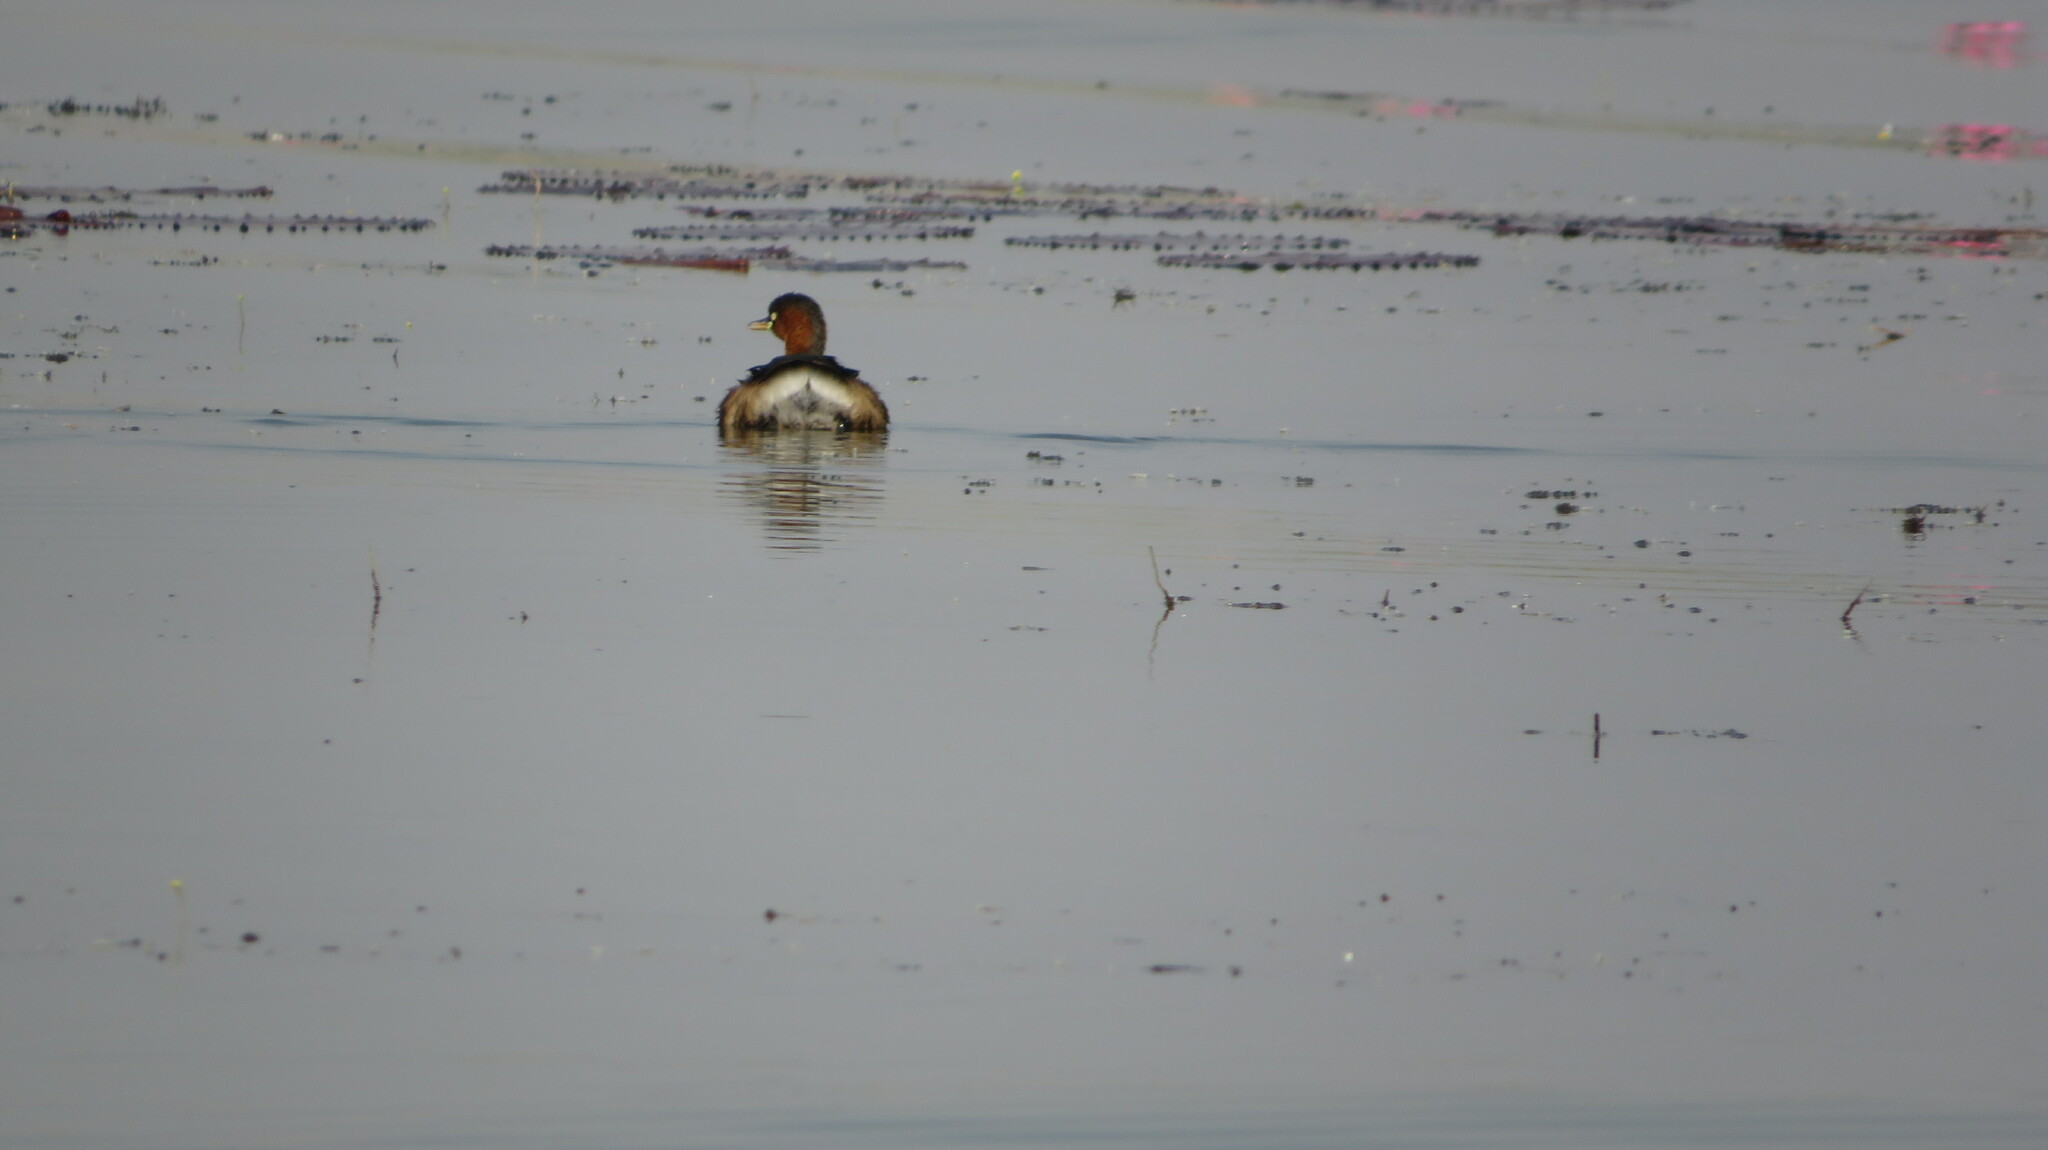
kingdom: Animalia
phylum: Chordata
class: Aves
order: Podicipediformes
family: Podicipedidae
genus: Tachybaptus
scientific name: Tachybaptus ruficollis
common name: Little grebe
